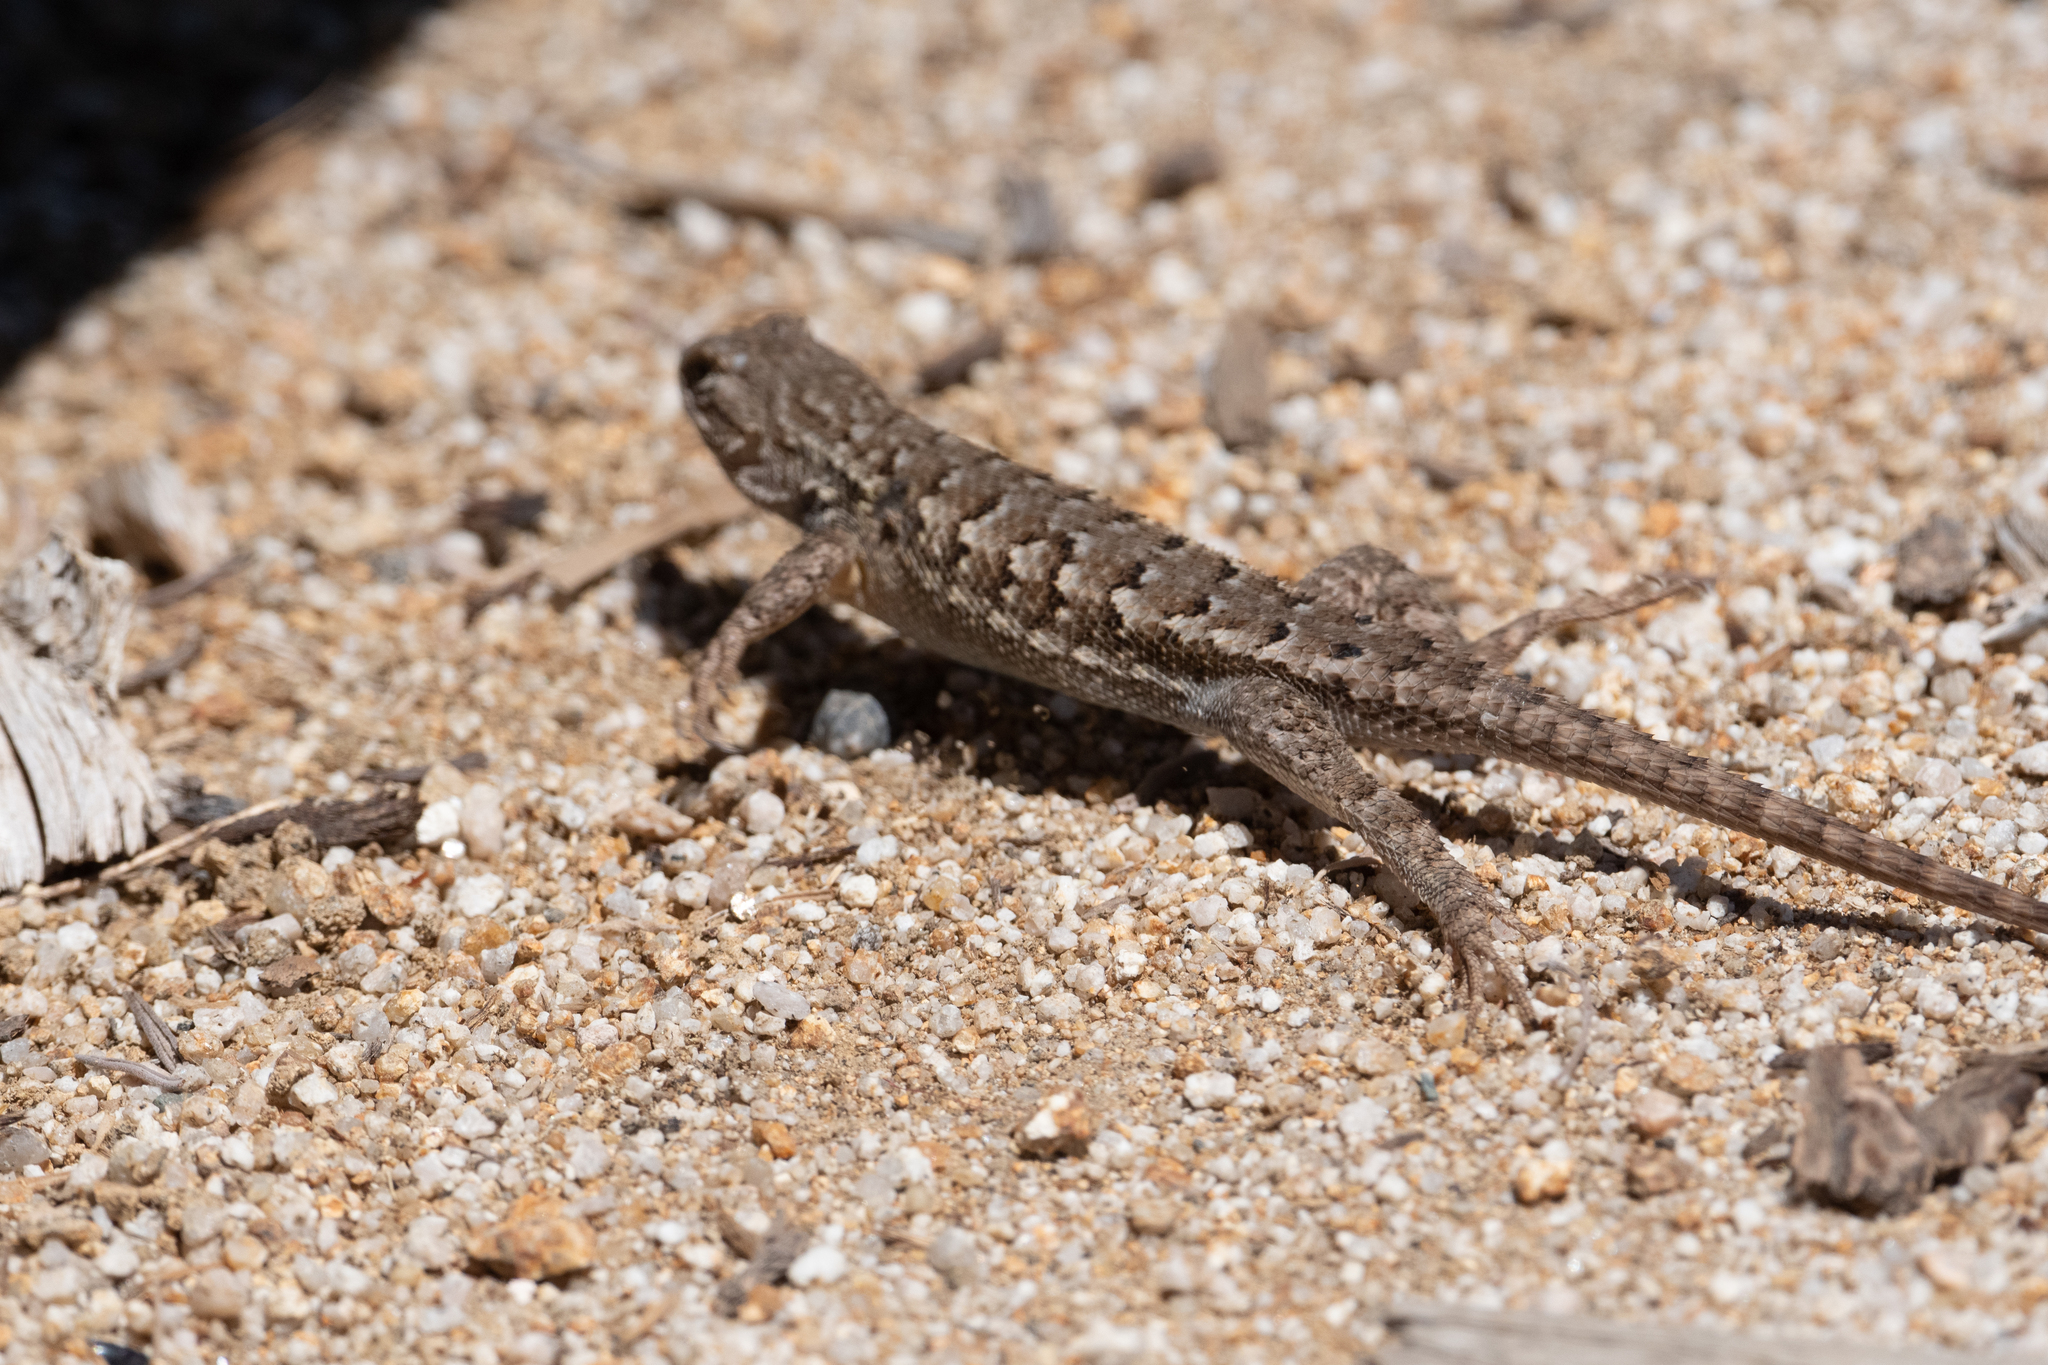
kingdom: Animalia
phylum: Chordata
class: Squamata
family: Phrynosomatidae
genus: Sceloporus
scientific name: Sceloporus occidentalis
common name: Western fence lizard
